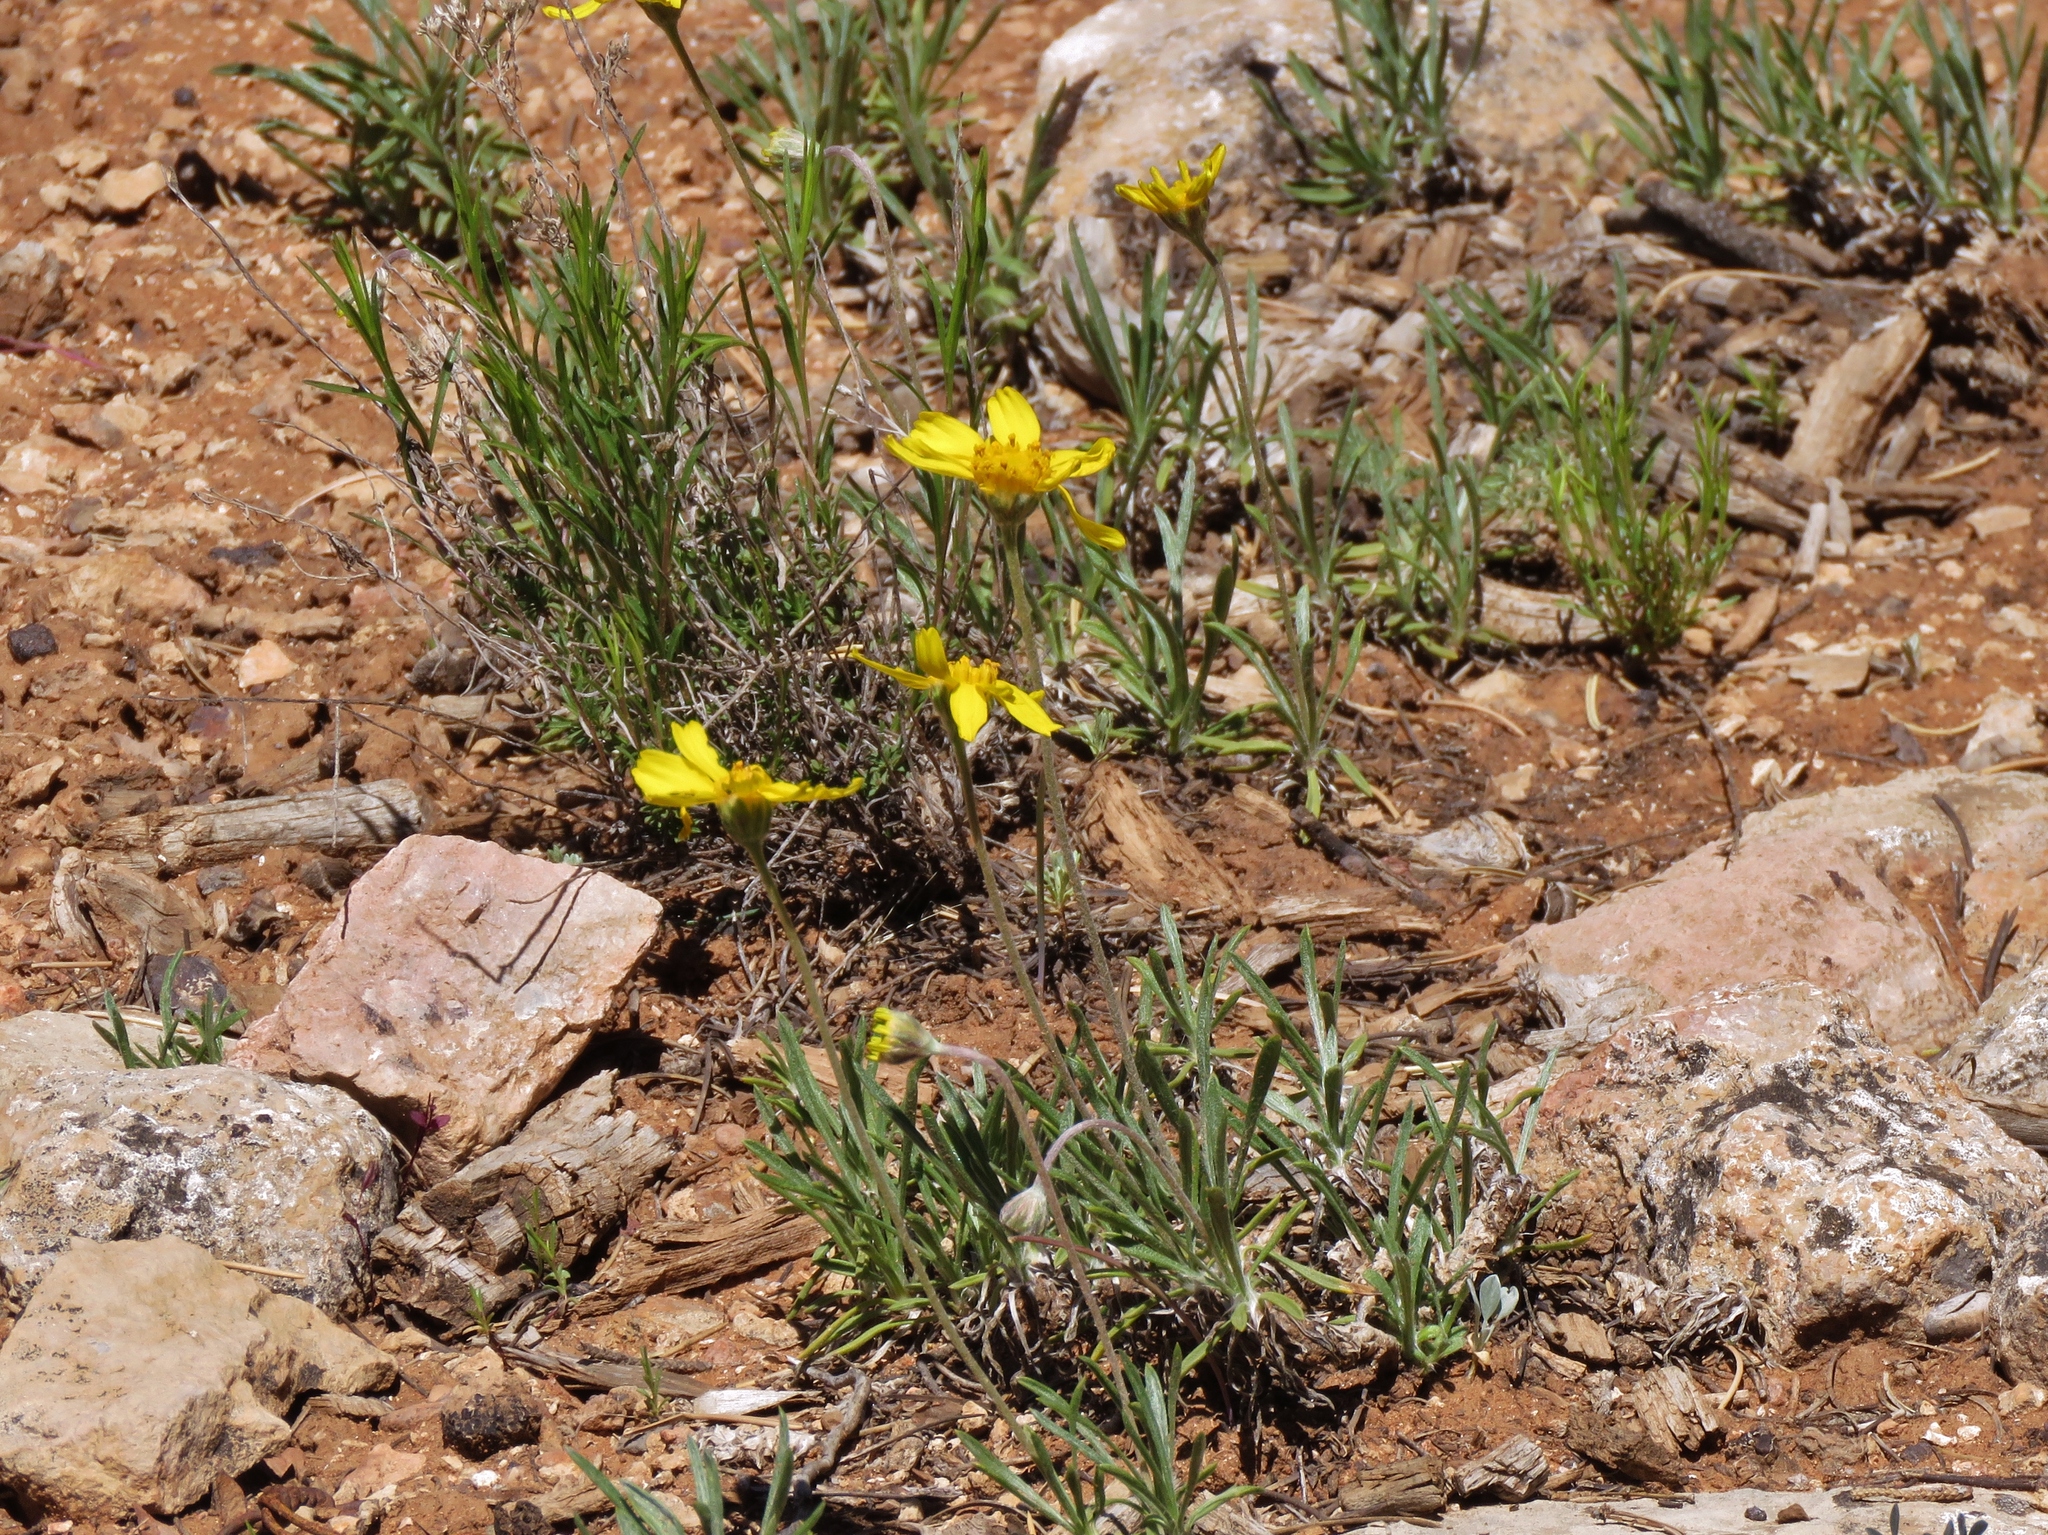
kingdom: Plantae
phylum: Tracheophyta
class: Magnoliopsida
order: Asterales
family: Asteraceae
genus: Tetraneuris
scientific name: Tetraneuris acaulis
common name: Butte marigold
